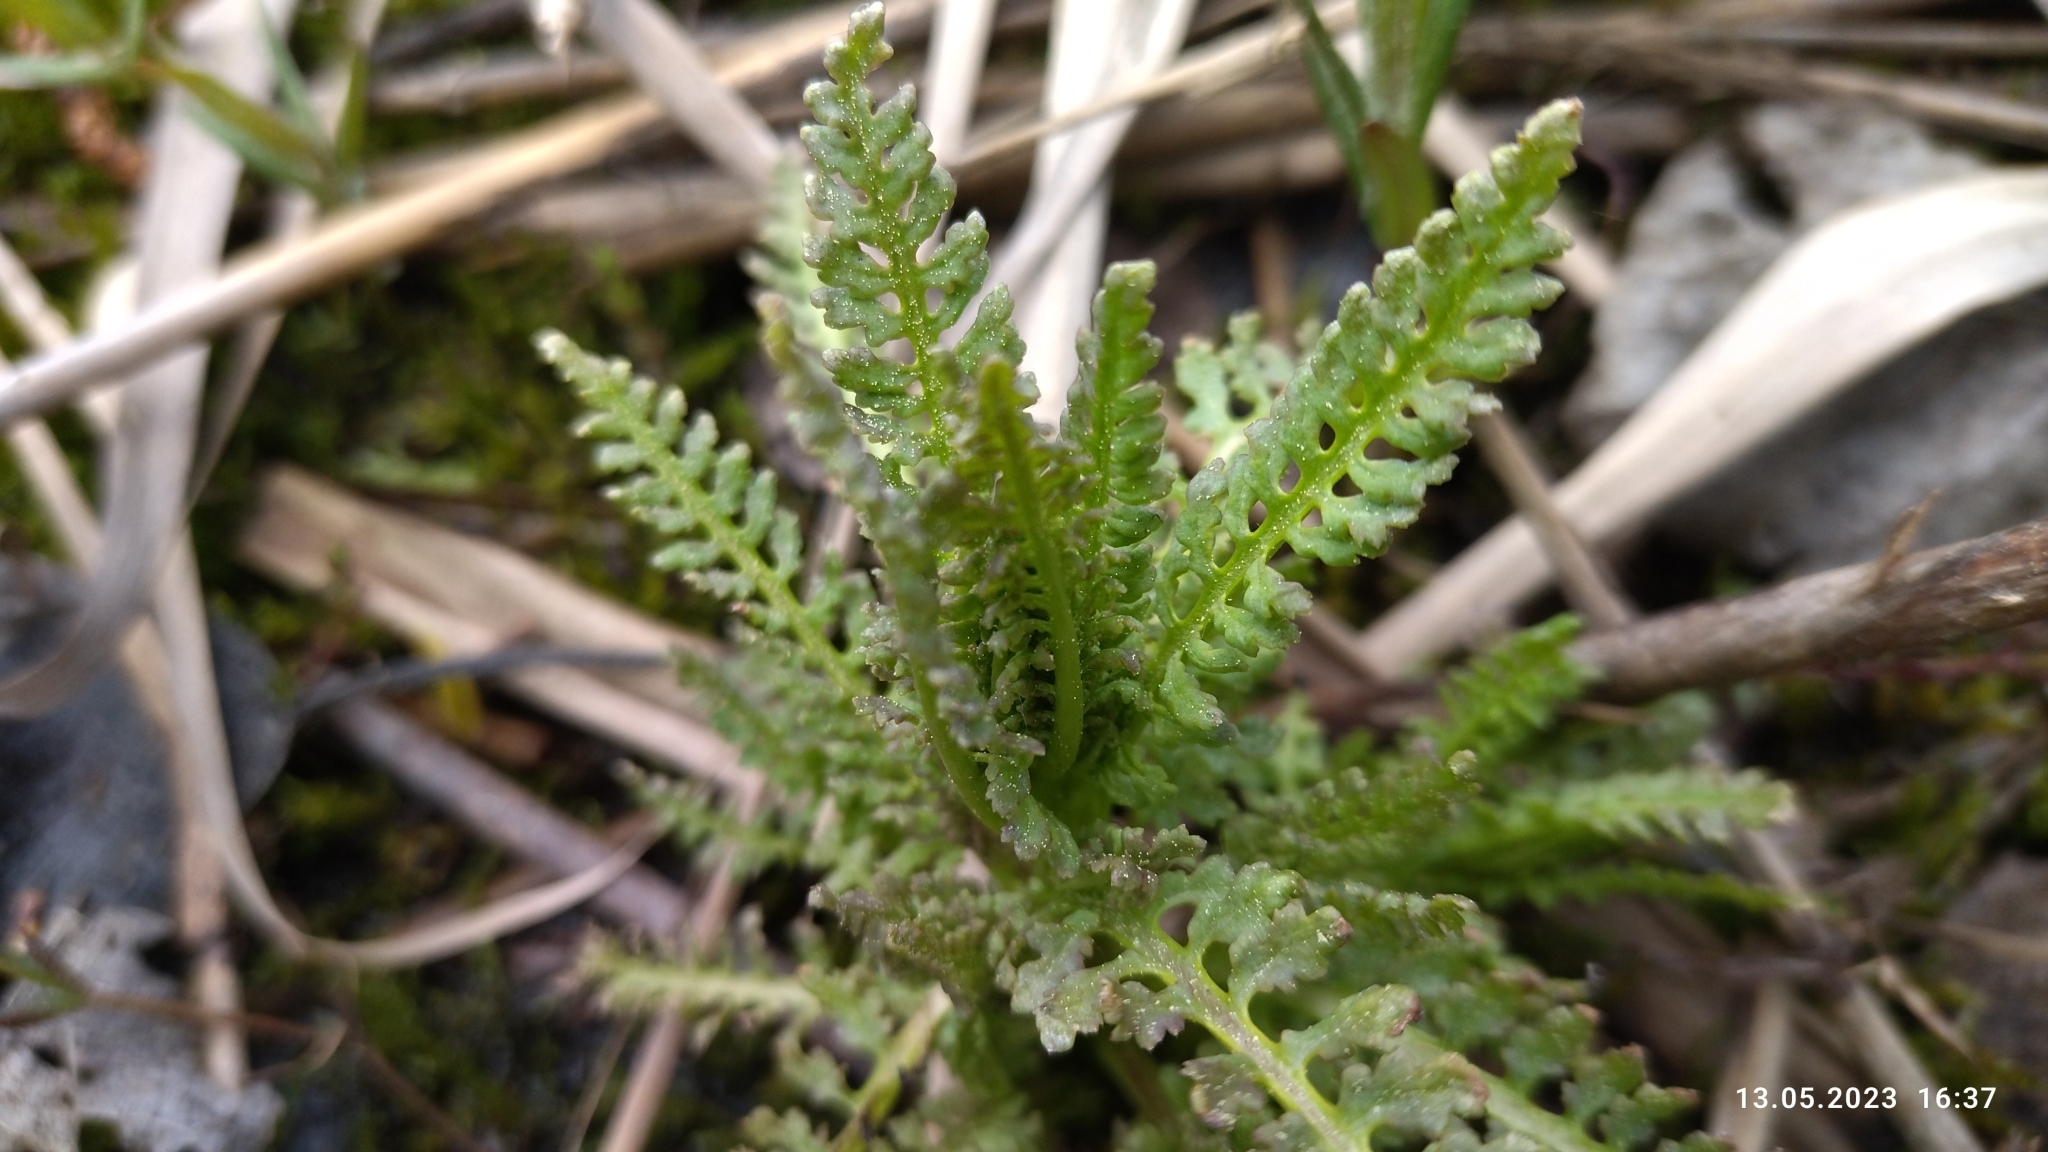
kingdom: Plantae
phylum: Tracheophyta
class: Magnoliopsida
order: Lamiales
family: Orobanchaceae
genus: Pedicularis
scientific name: Pedicularis palustris
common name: Marsh lousewort
